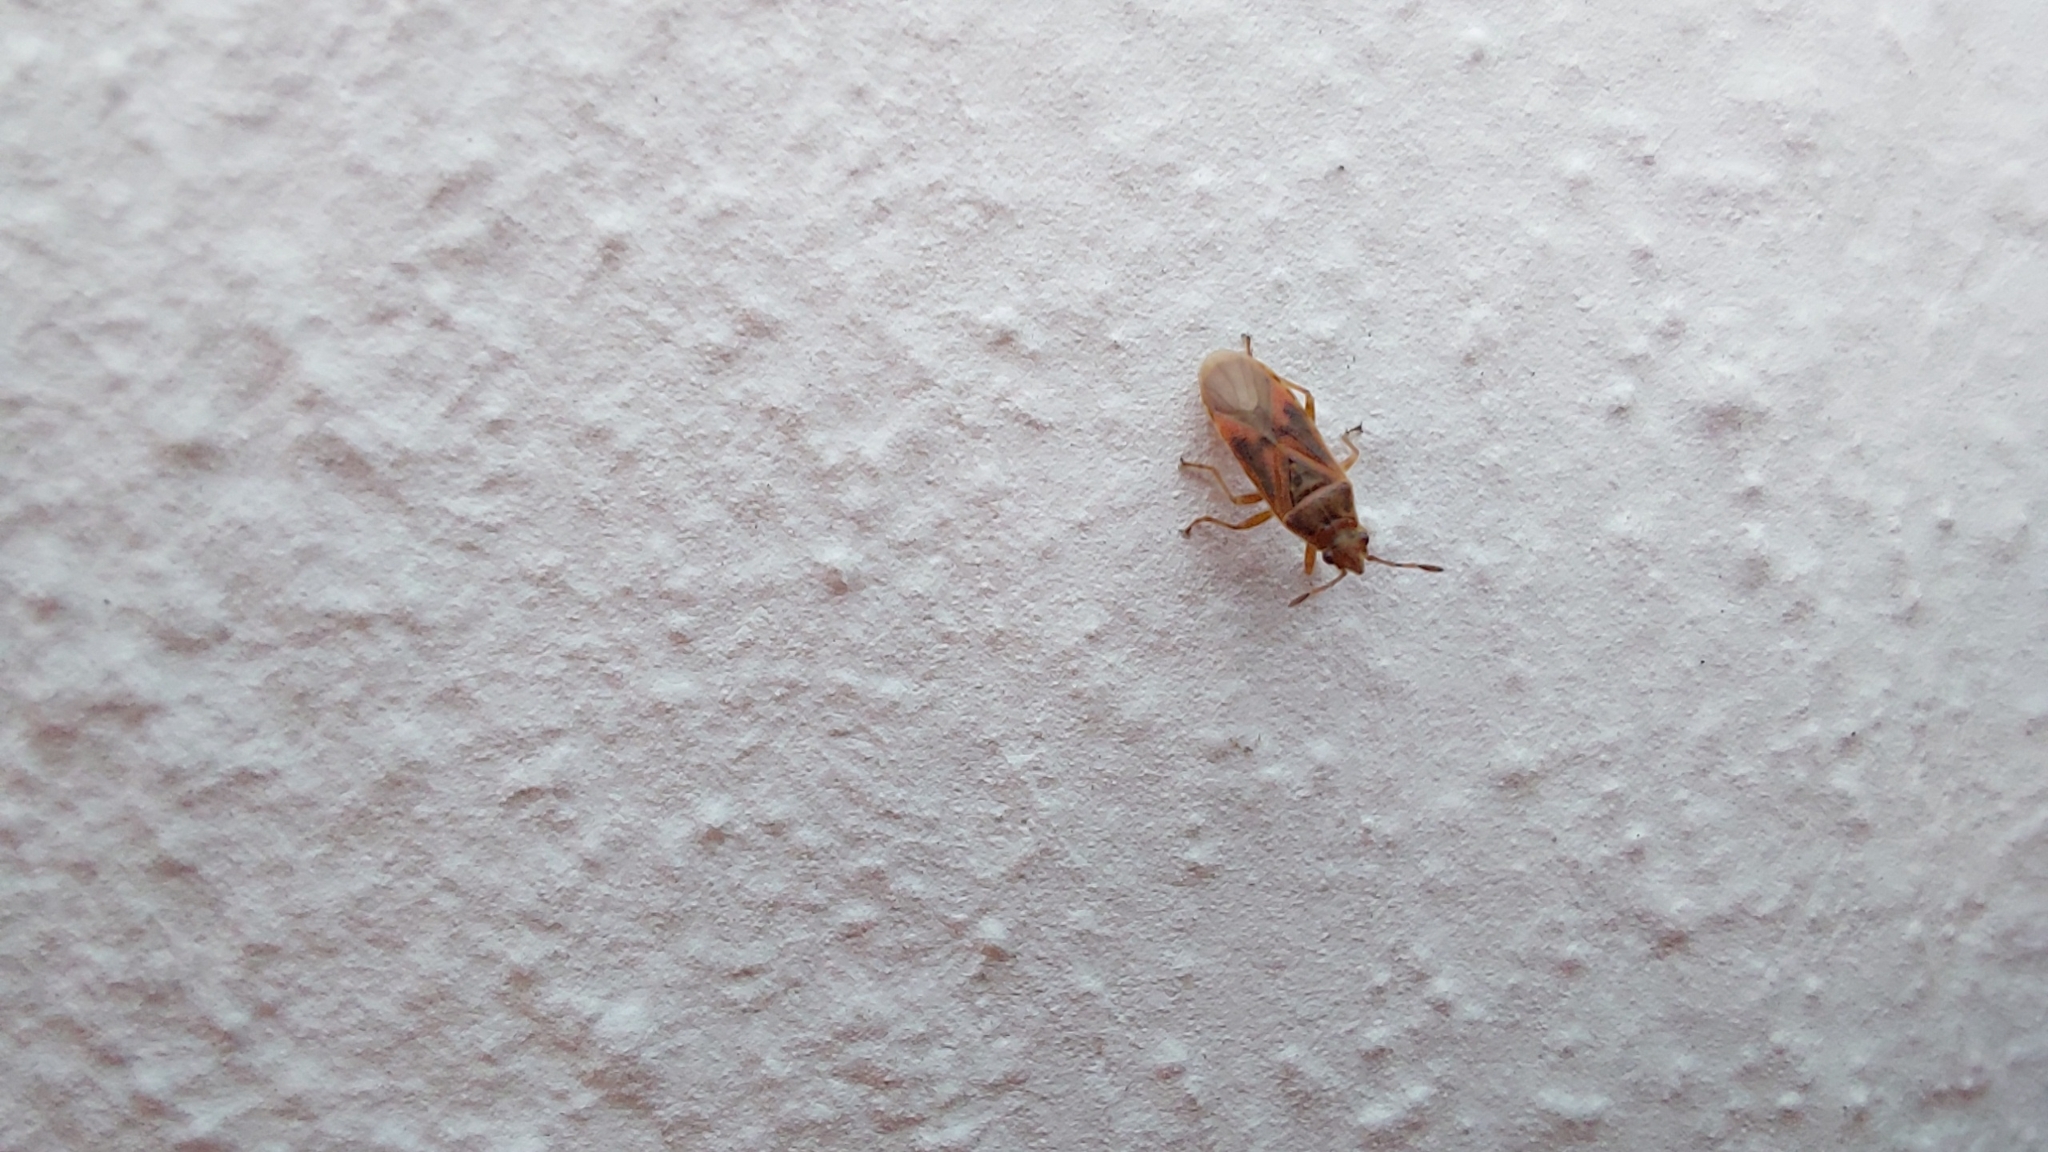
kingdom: Animalia
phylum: Arthropoda
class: Insecta
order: Hemiptera
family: Lygaeidae
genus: Arocatus
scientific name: Arocatus roeselii
